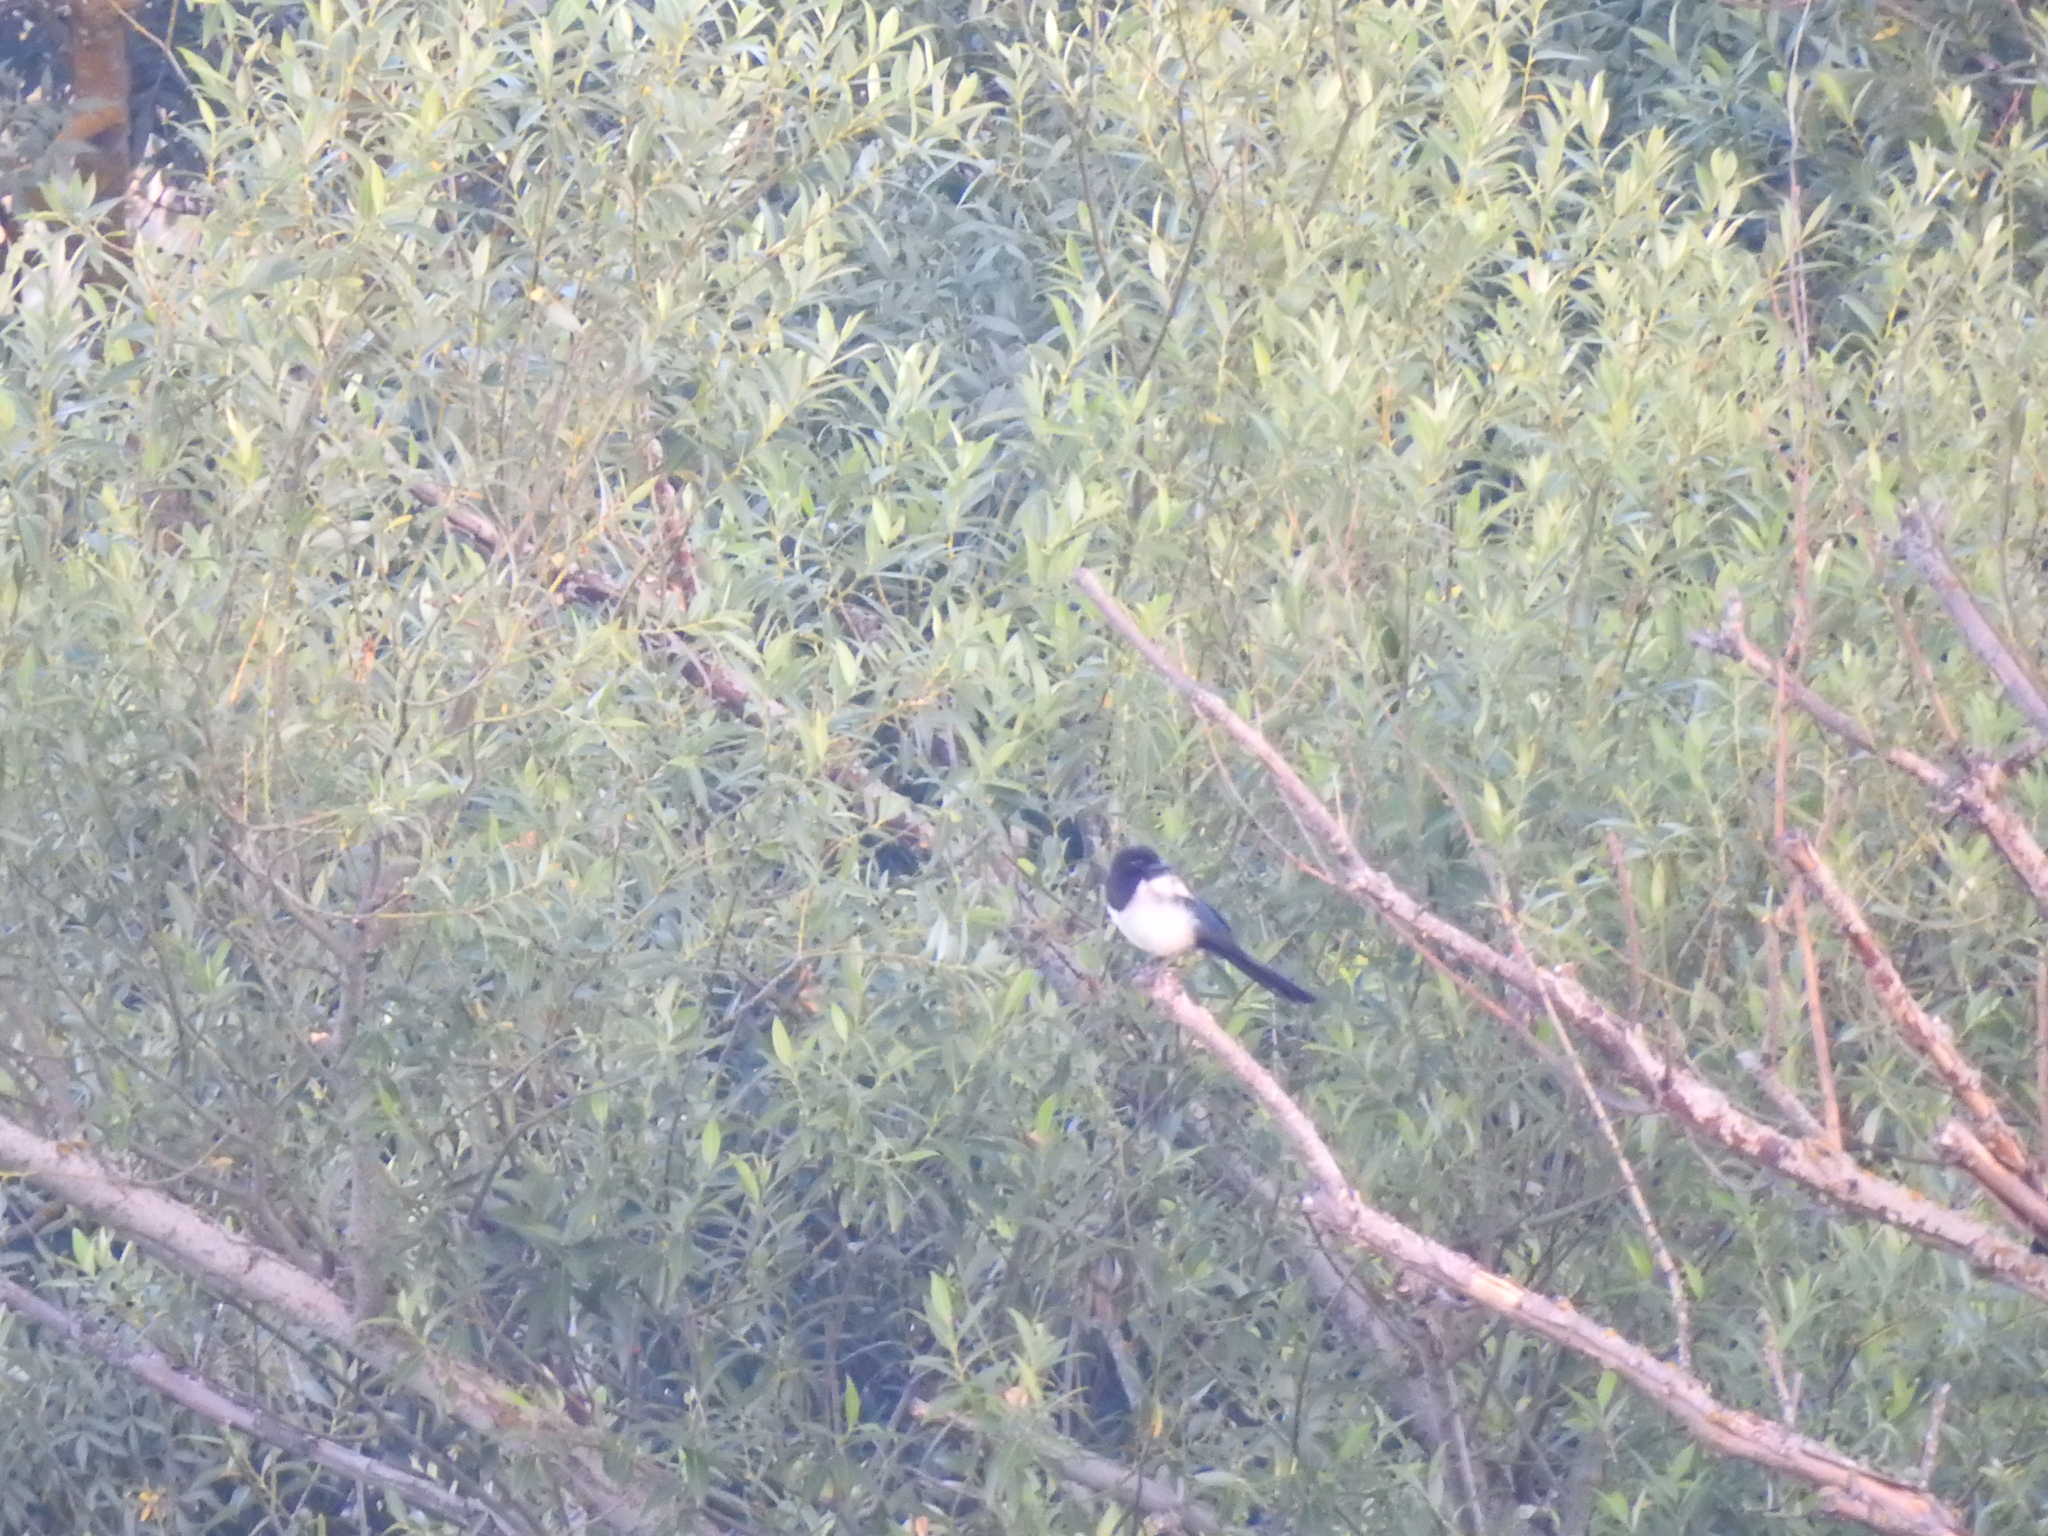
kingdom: Animalia
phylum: Chordata
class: Aves
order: Passeriformes
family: Corvidae
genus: Pica
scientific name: Pica pica
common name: Eurasian magpie
